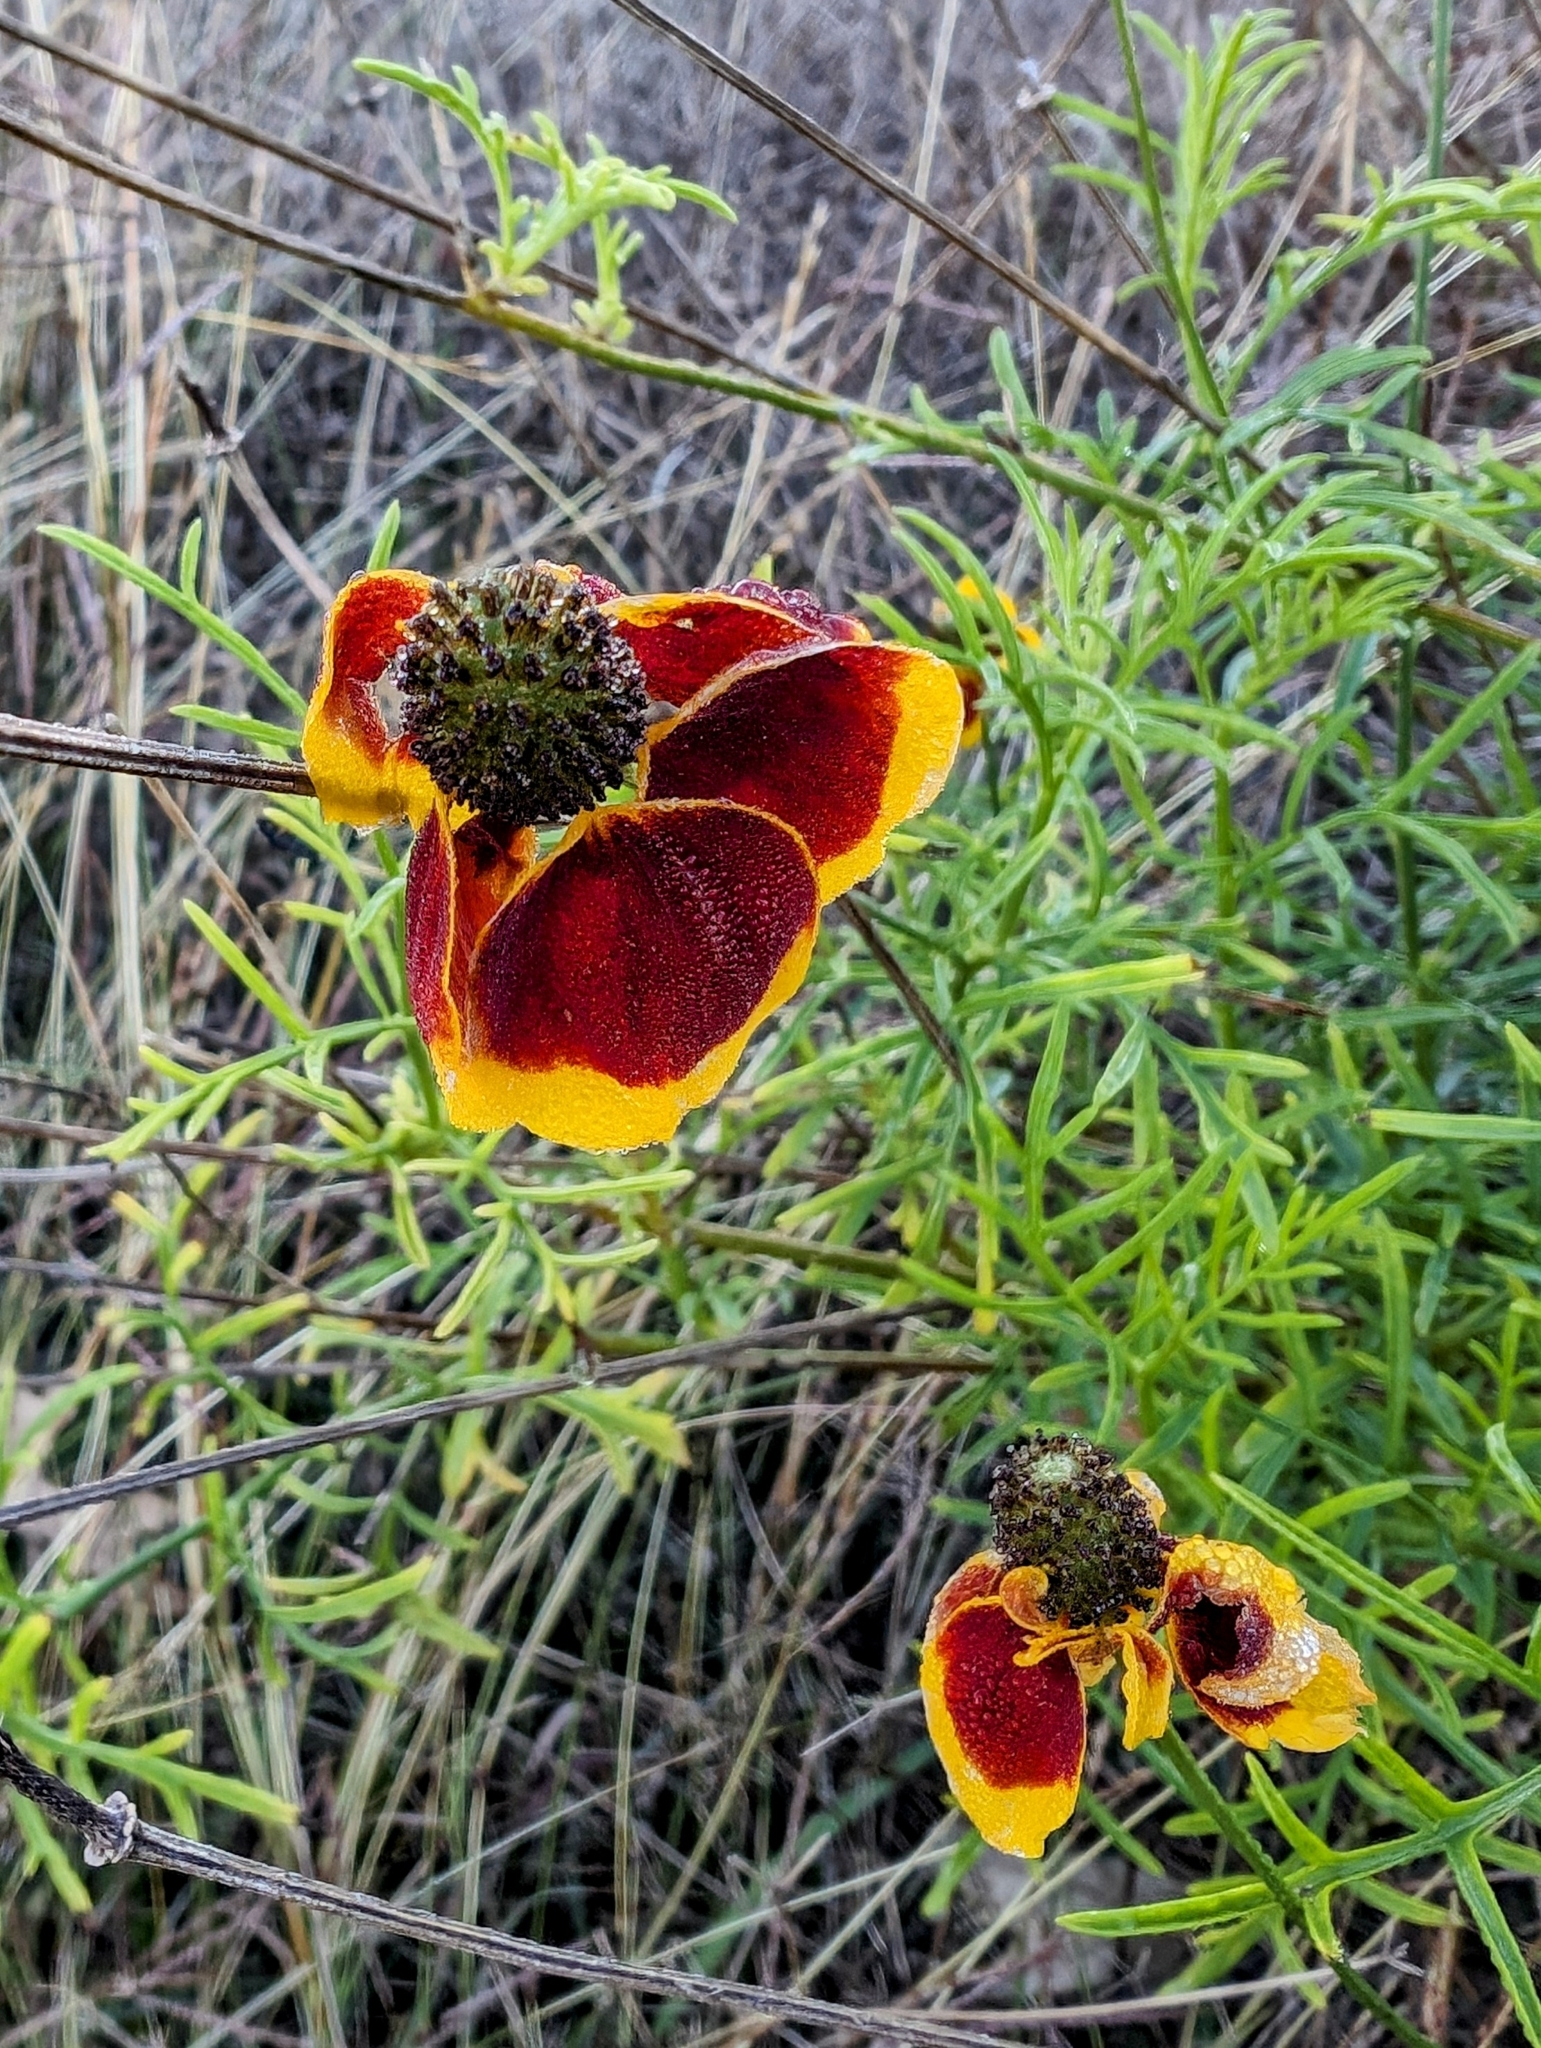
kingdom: Plantae
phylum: Tracheophyta
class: Magnoliopsida
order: Asterales
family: Asteraceae
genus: Ratibida
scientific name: Ratibida columnifera
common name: Prairie coneflower
